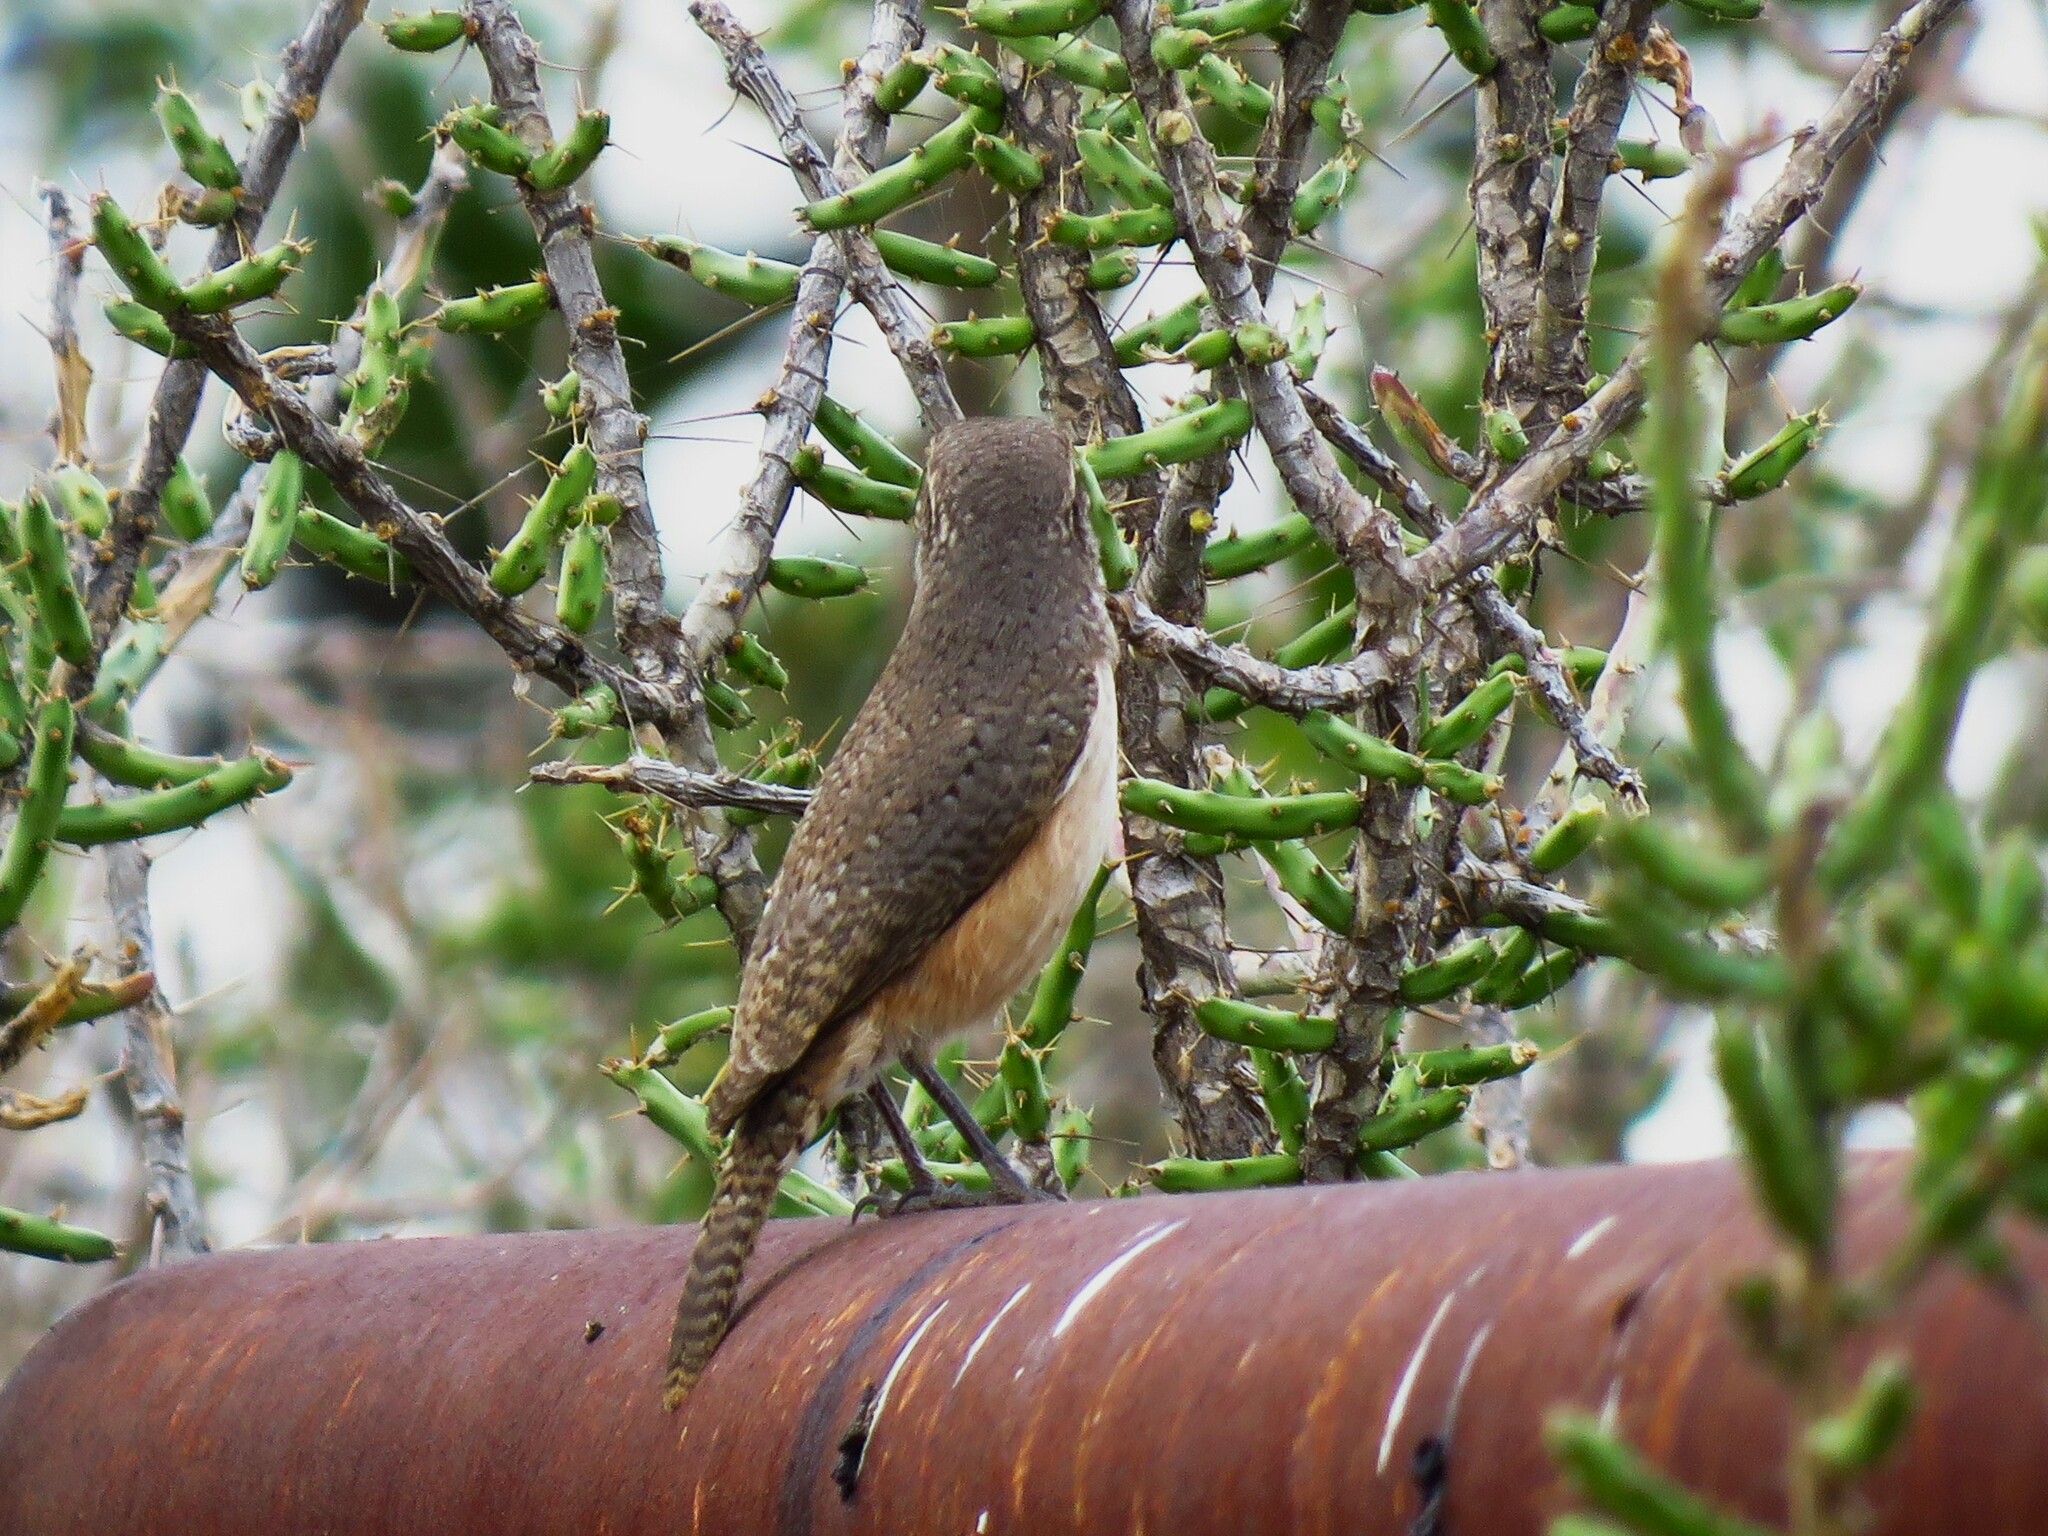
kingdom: Animalia
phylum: Chordata
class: Aves
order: Passeriformes
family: Troglodytidae
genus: Salpinctes
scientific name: Salpinctes obsoletus
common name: Rock wren
